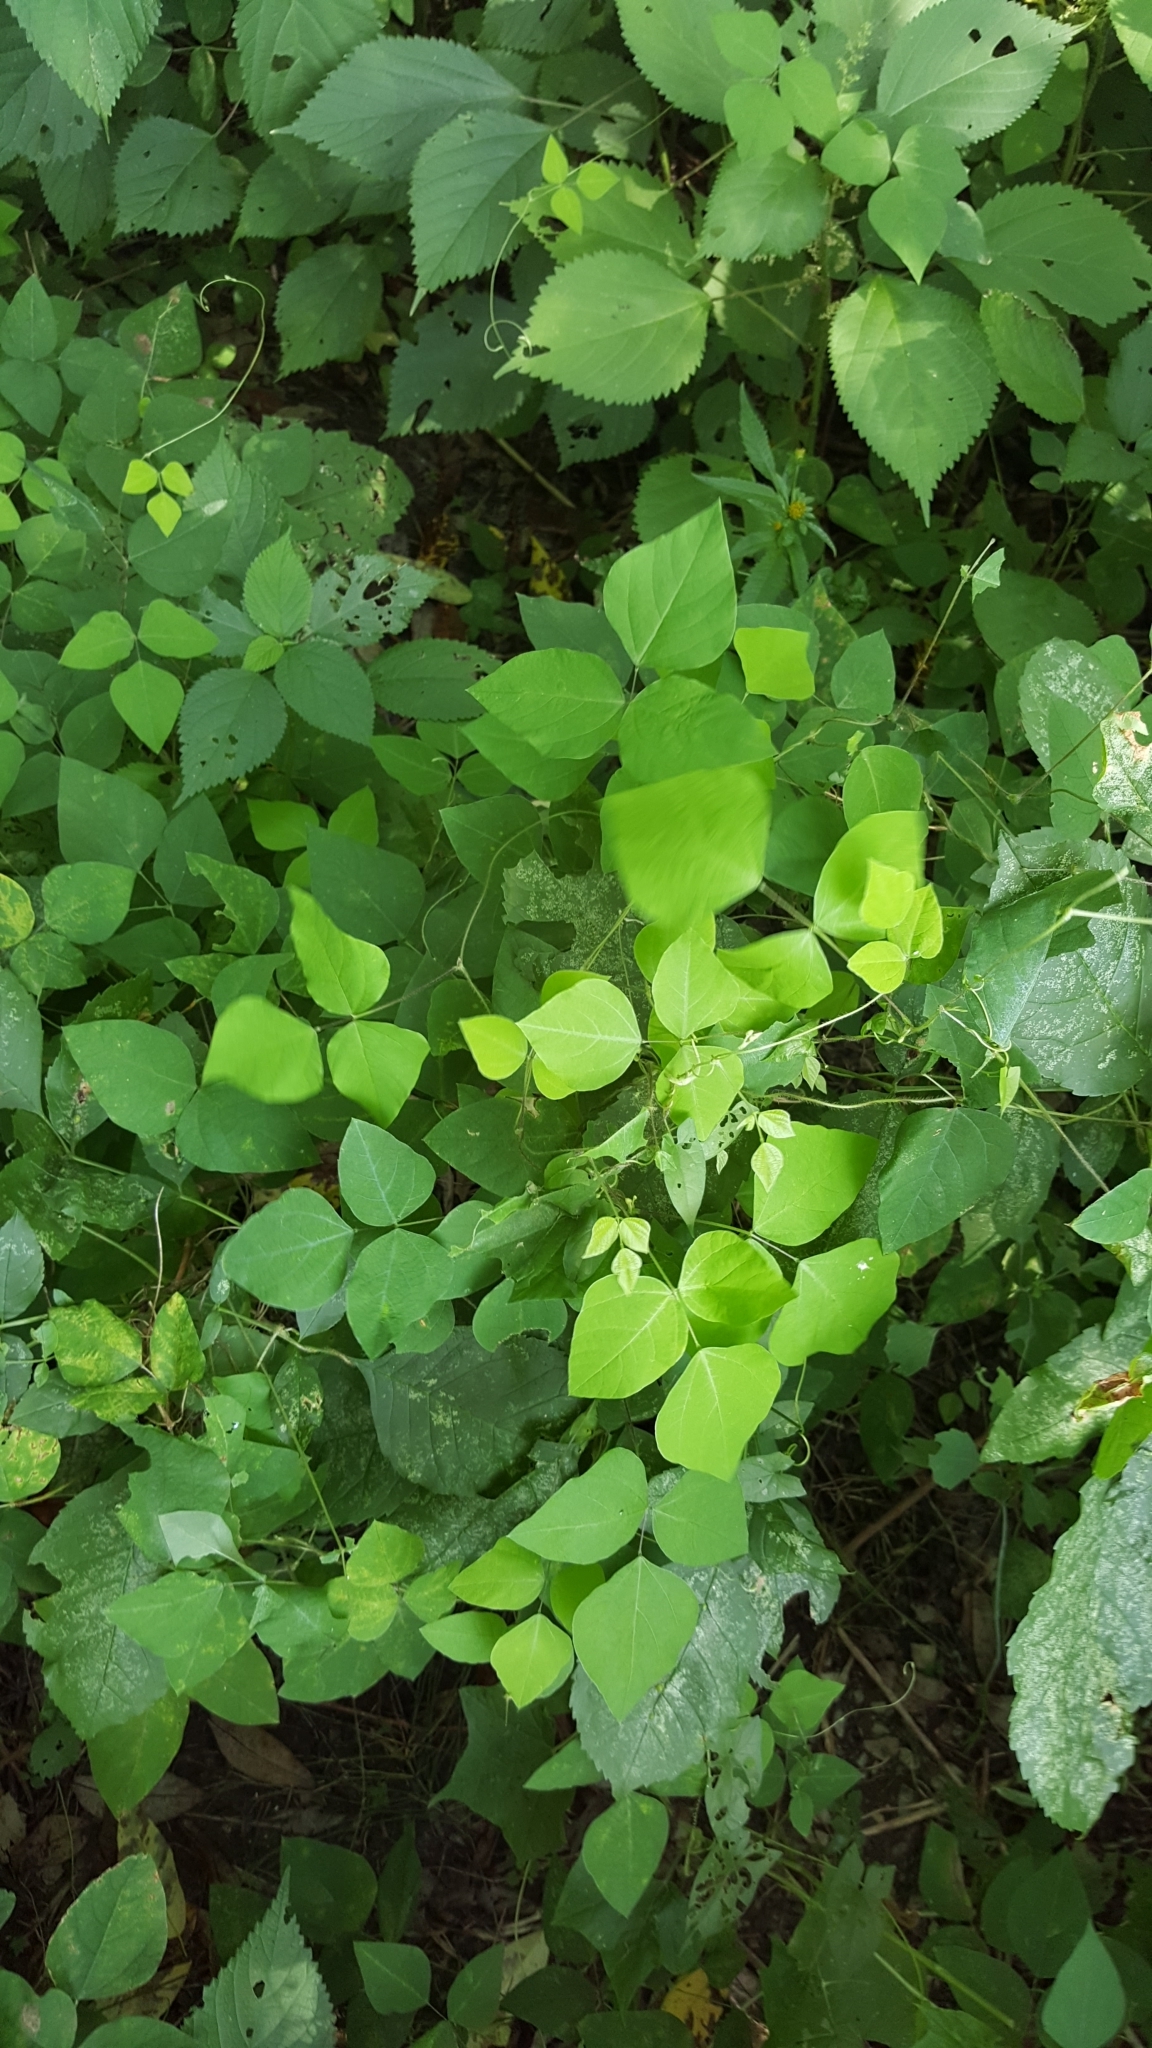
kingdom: Plantae
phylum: Tracheophyta
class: Magnoliopsida
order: Fabales
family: Fabaceae
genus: Amphicarpaea
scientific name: Amphicarpaea bracteata
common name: American hog peanut
